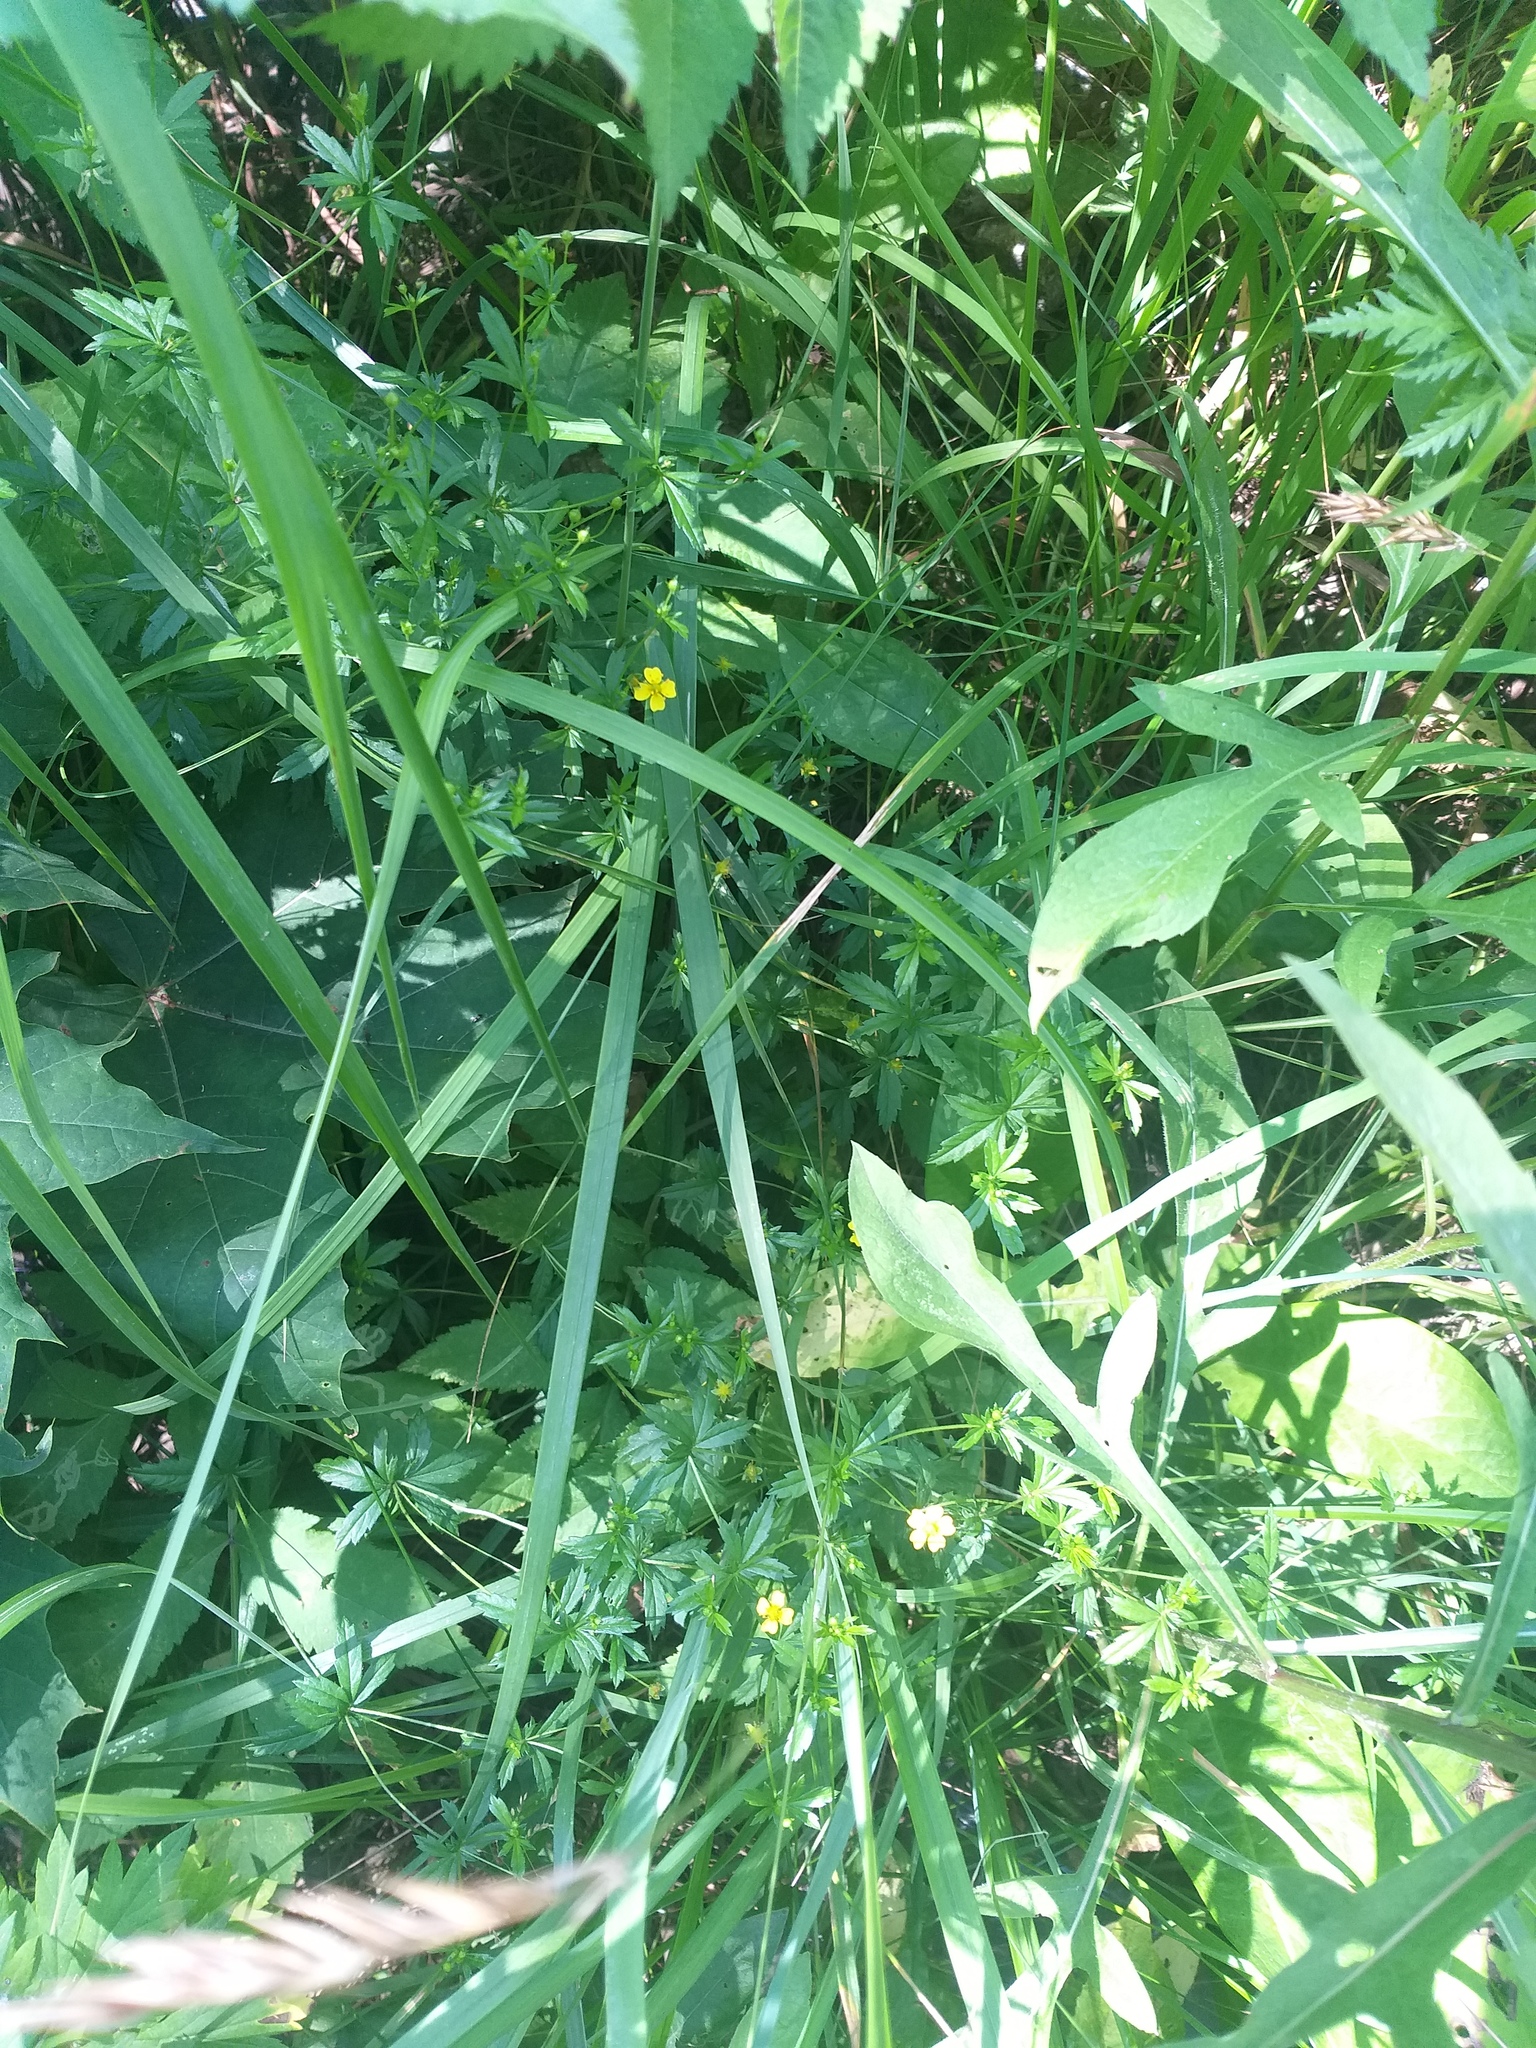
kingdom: Plantae
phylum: Tracheophyta
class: Magnoliopsida
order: Rosales
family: Rosaceae
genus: Potentilla
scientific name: Potentilla erecta
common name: Tormentil
